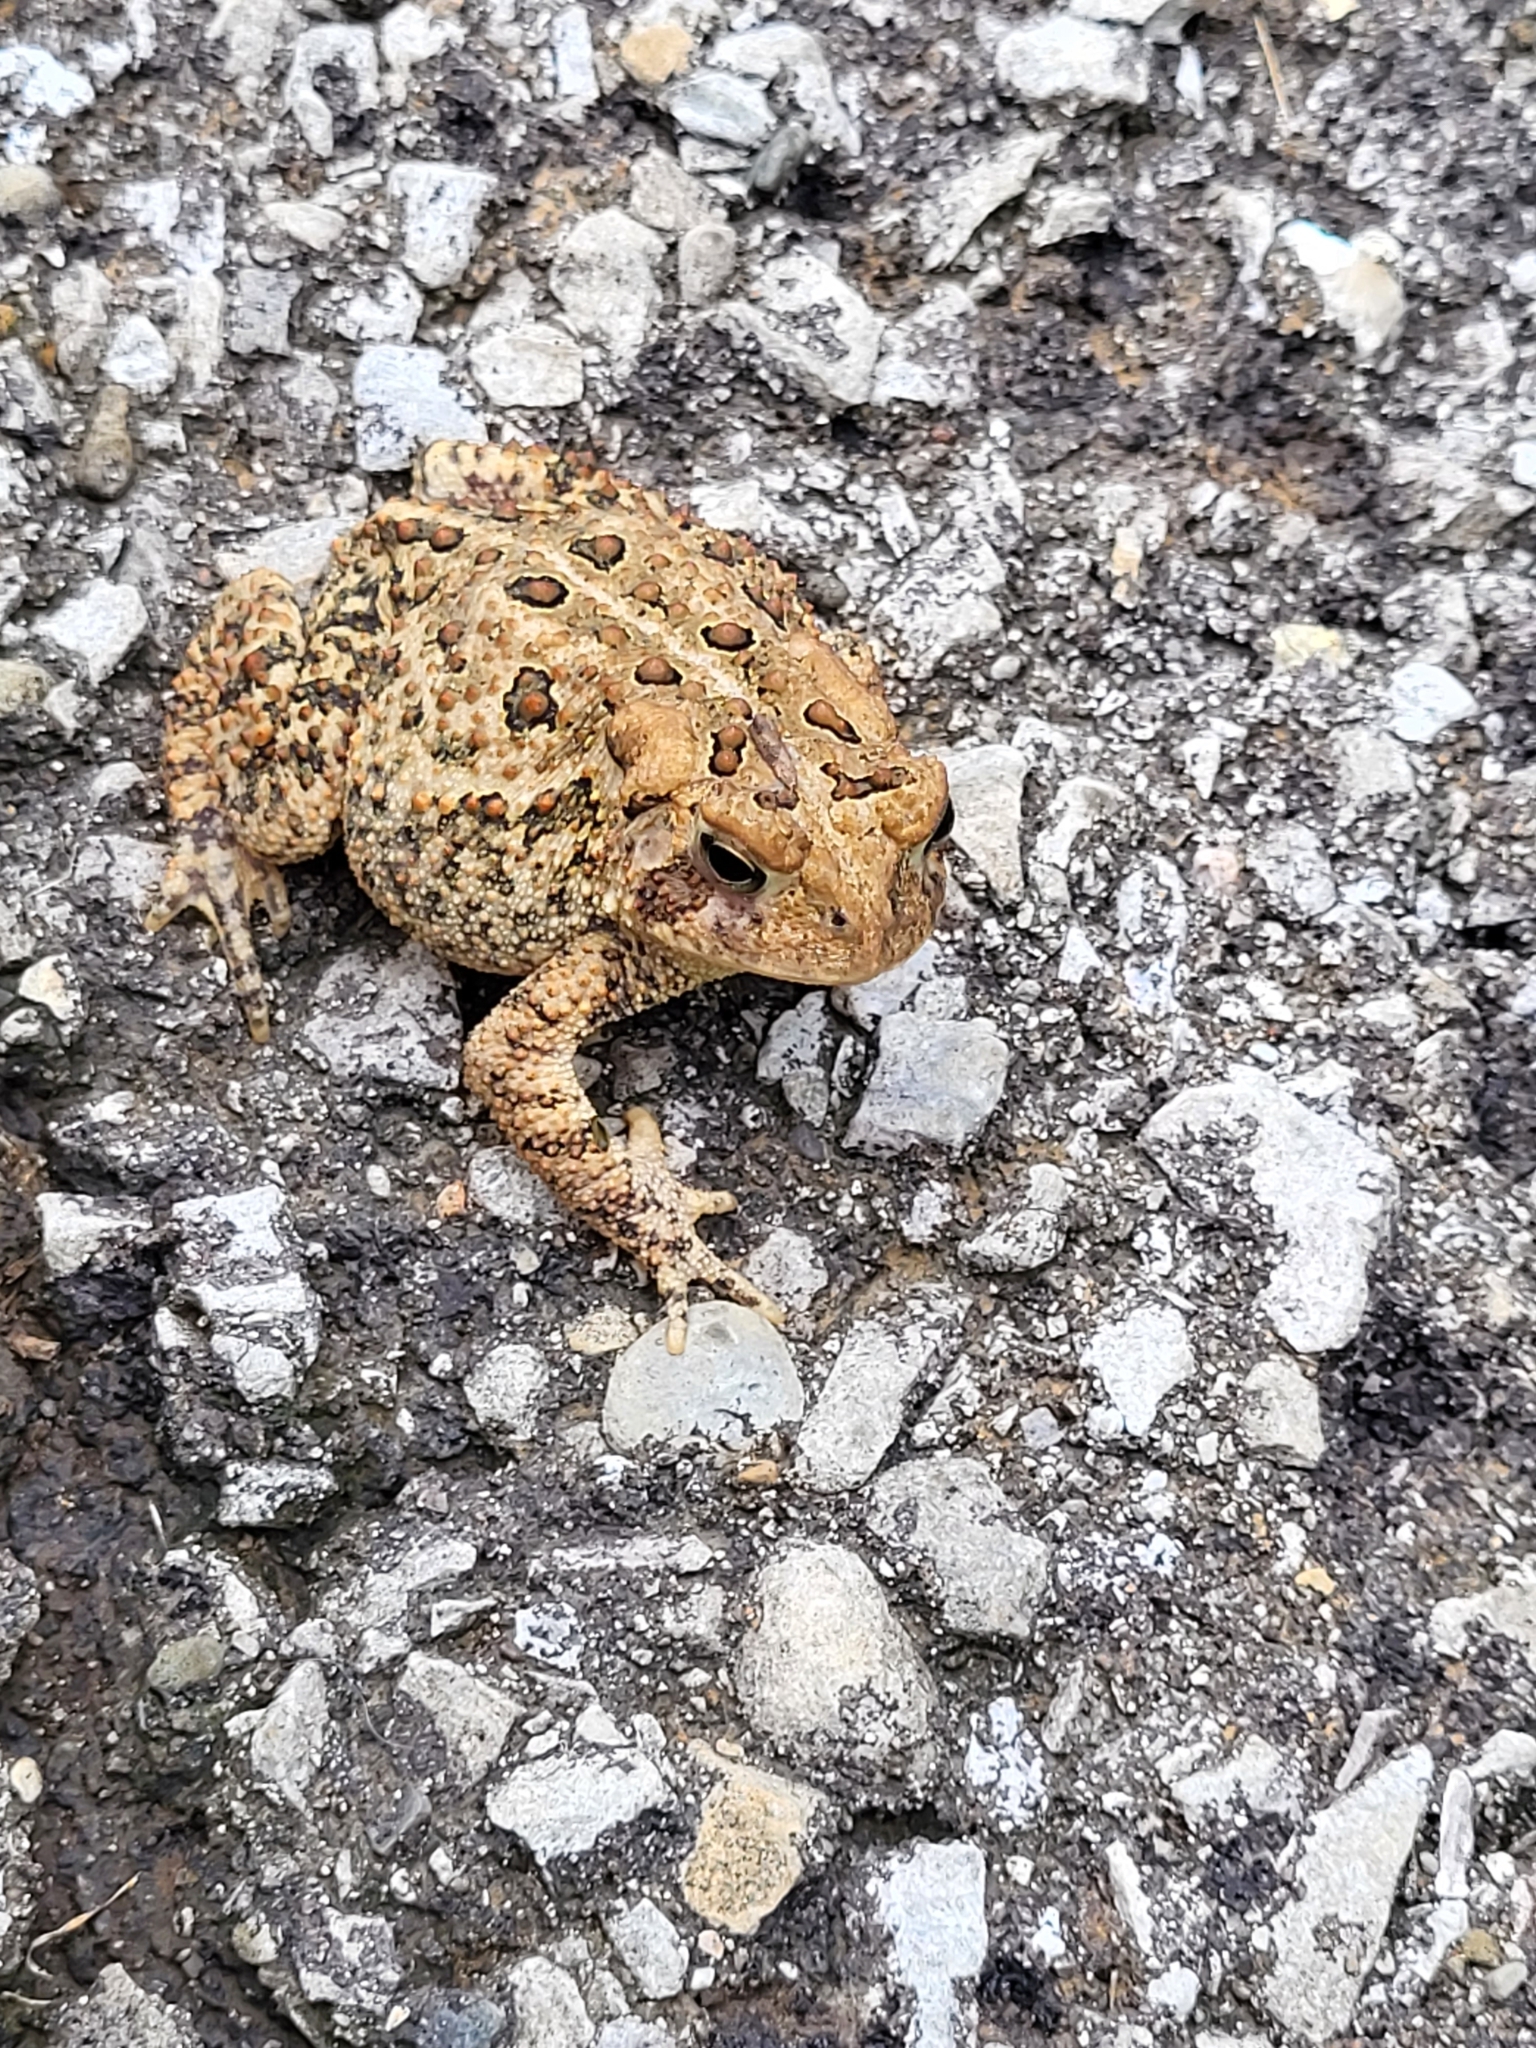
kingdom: Animalia
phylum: Chordata
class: Amphibia
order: Anura
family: Bufonidae
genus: Anaxyrus
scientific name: Anaxyrus americanus
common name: American toad
